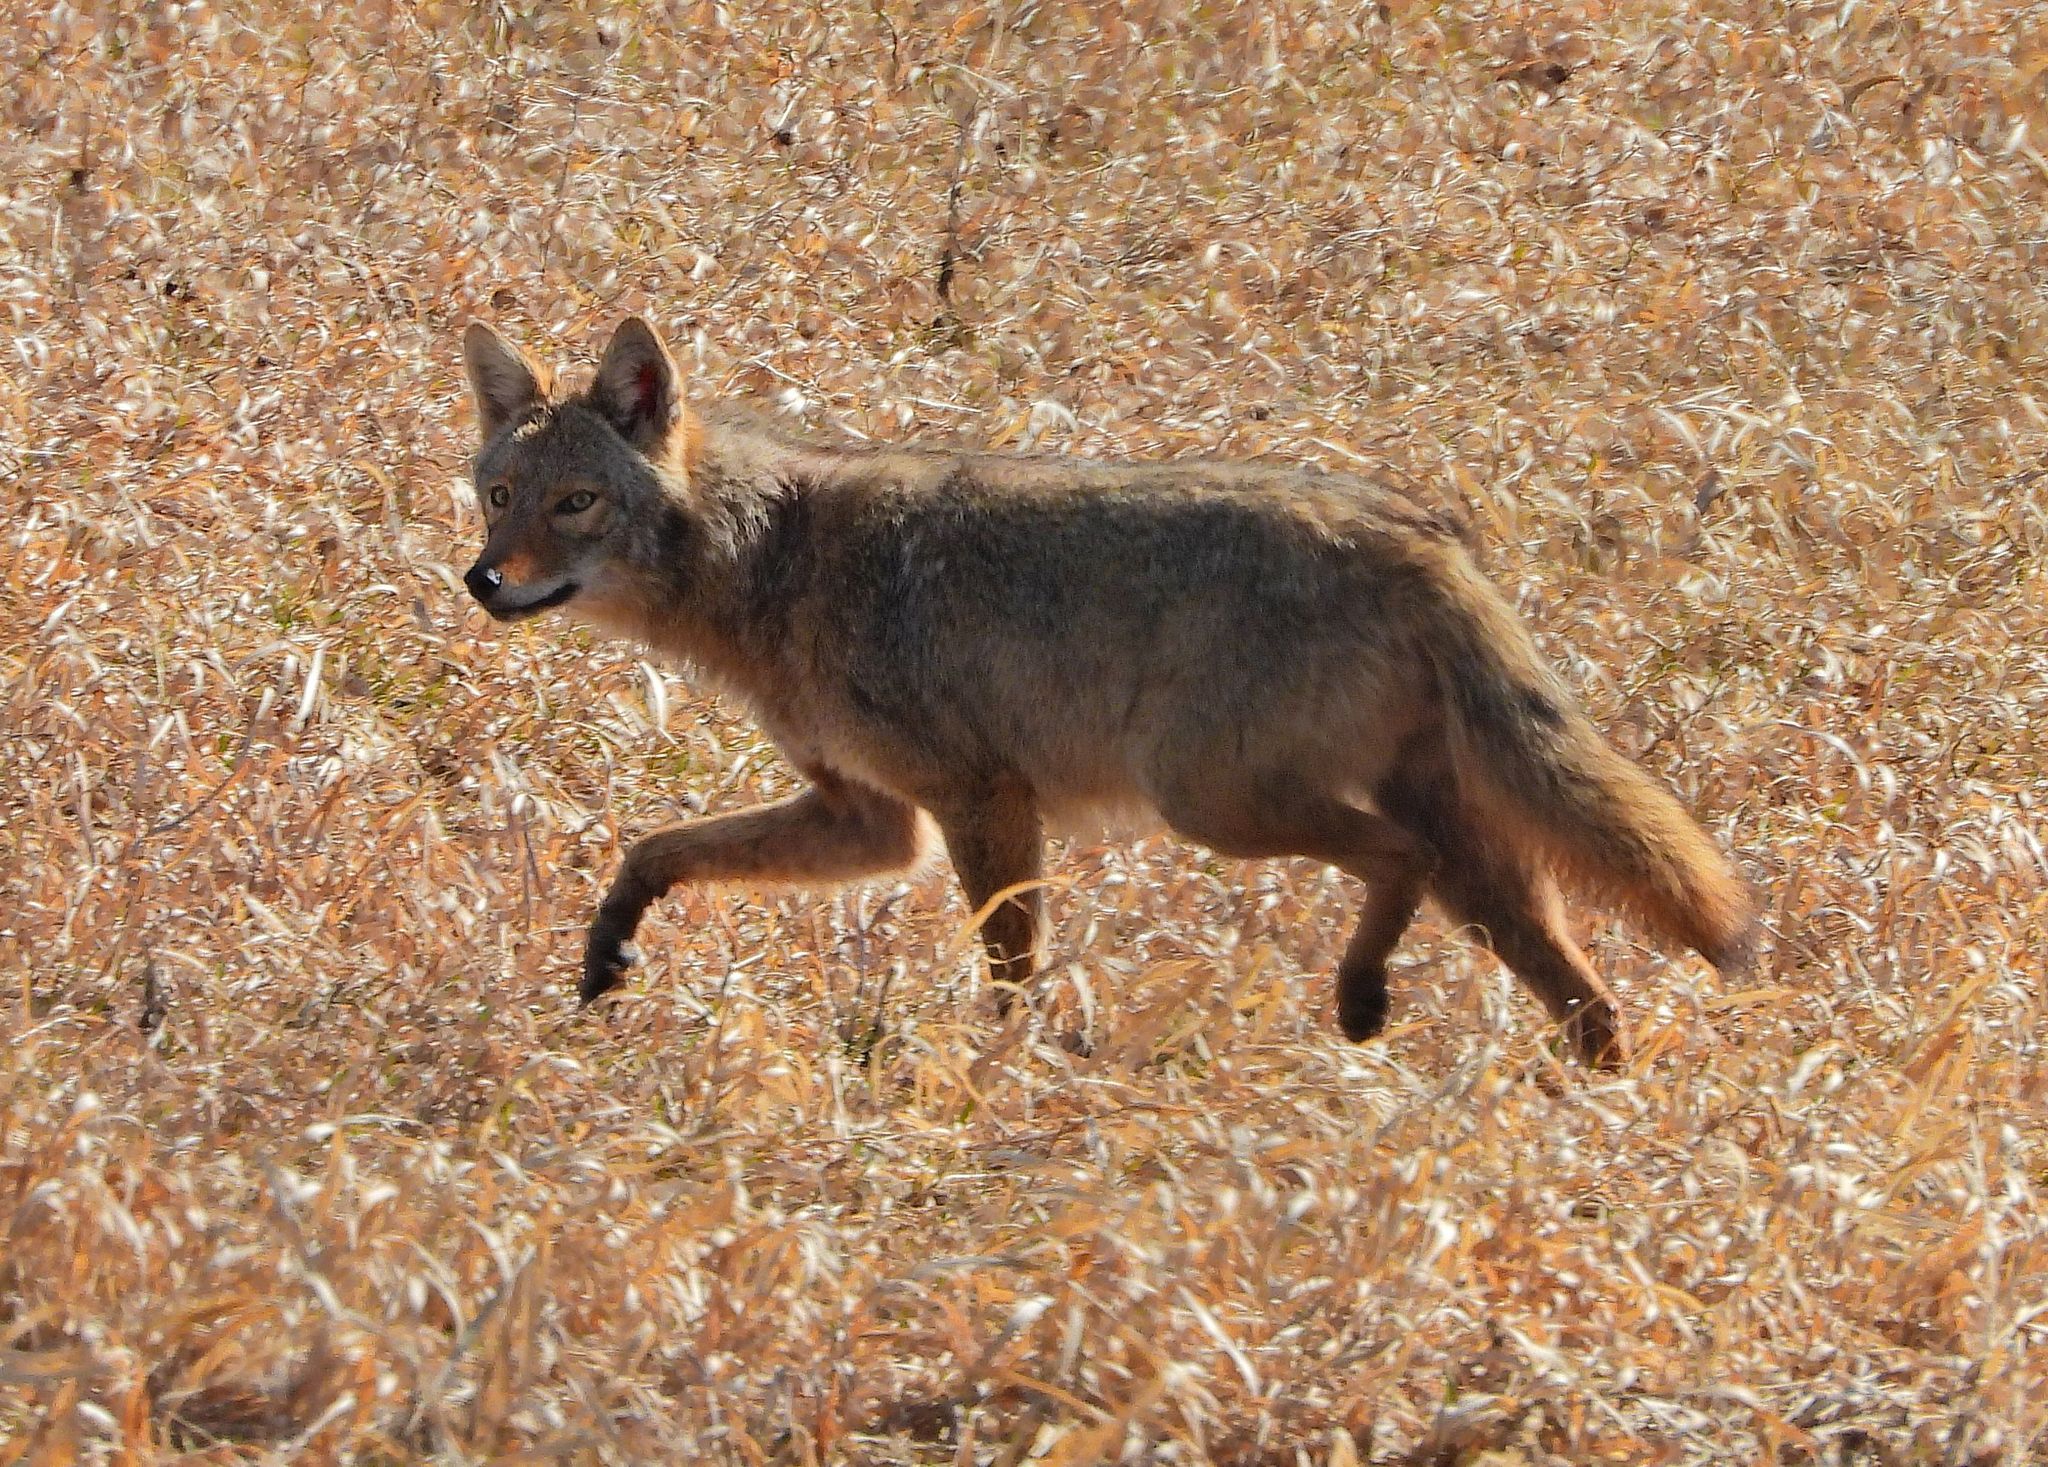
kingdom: Animalia
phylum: Chordata
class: Mammalia
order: Carnivora
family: Canidae
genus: Canis
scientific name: Canis latrans
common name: Coyote
